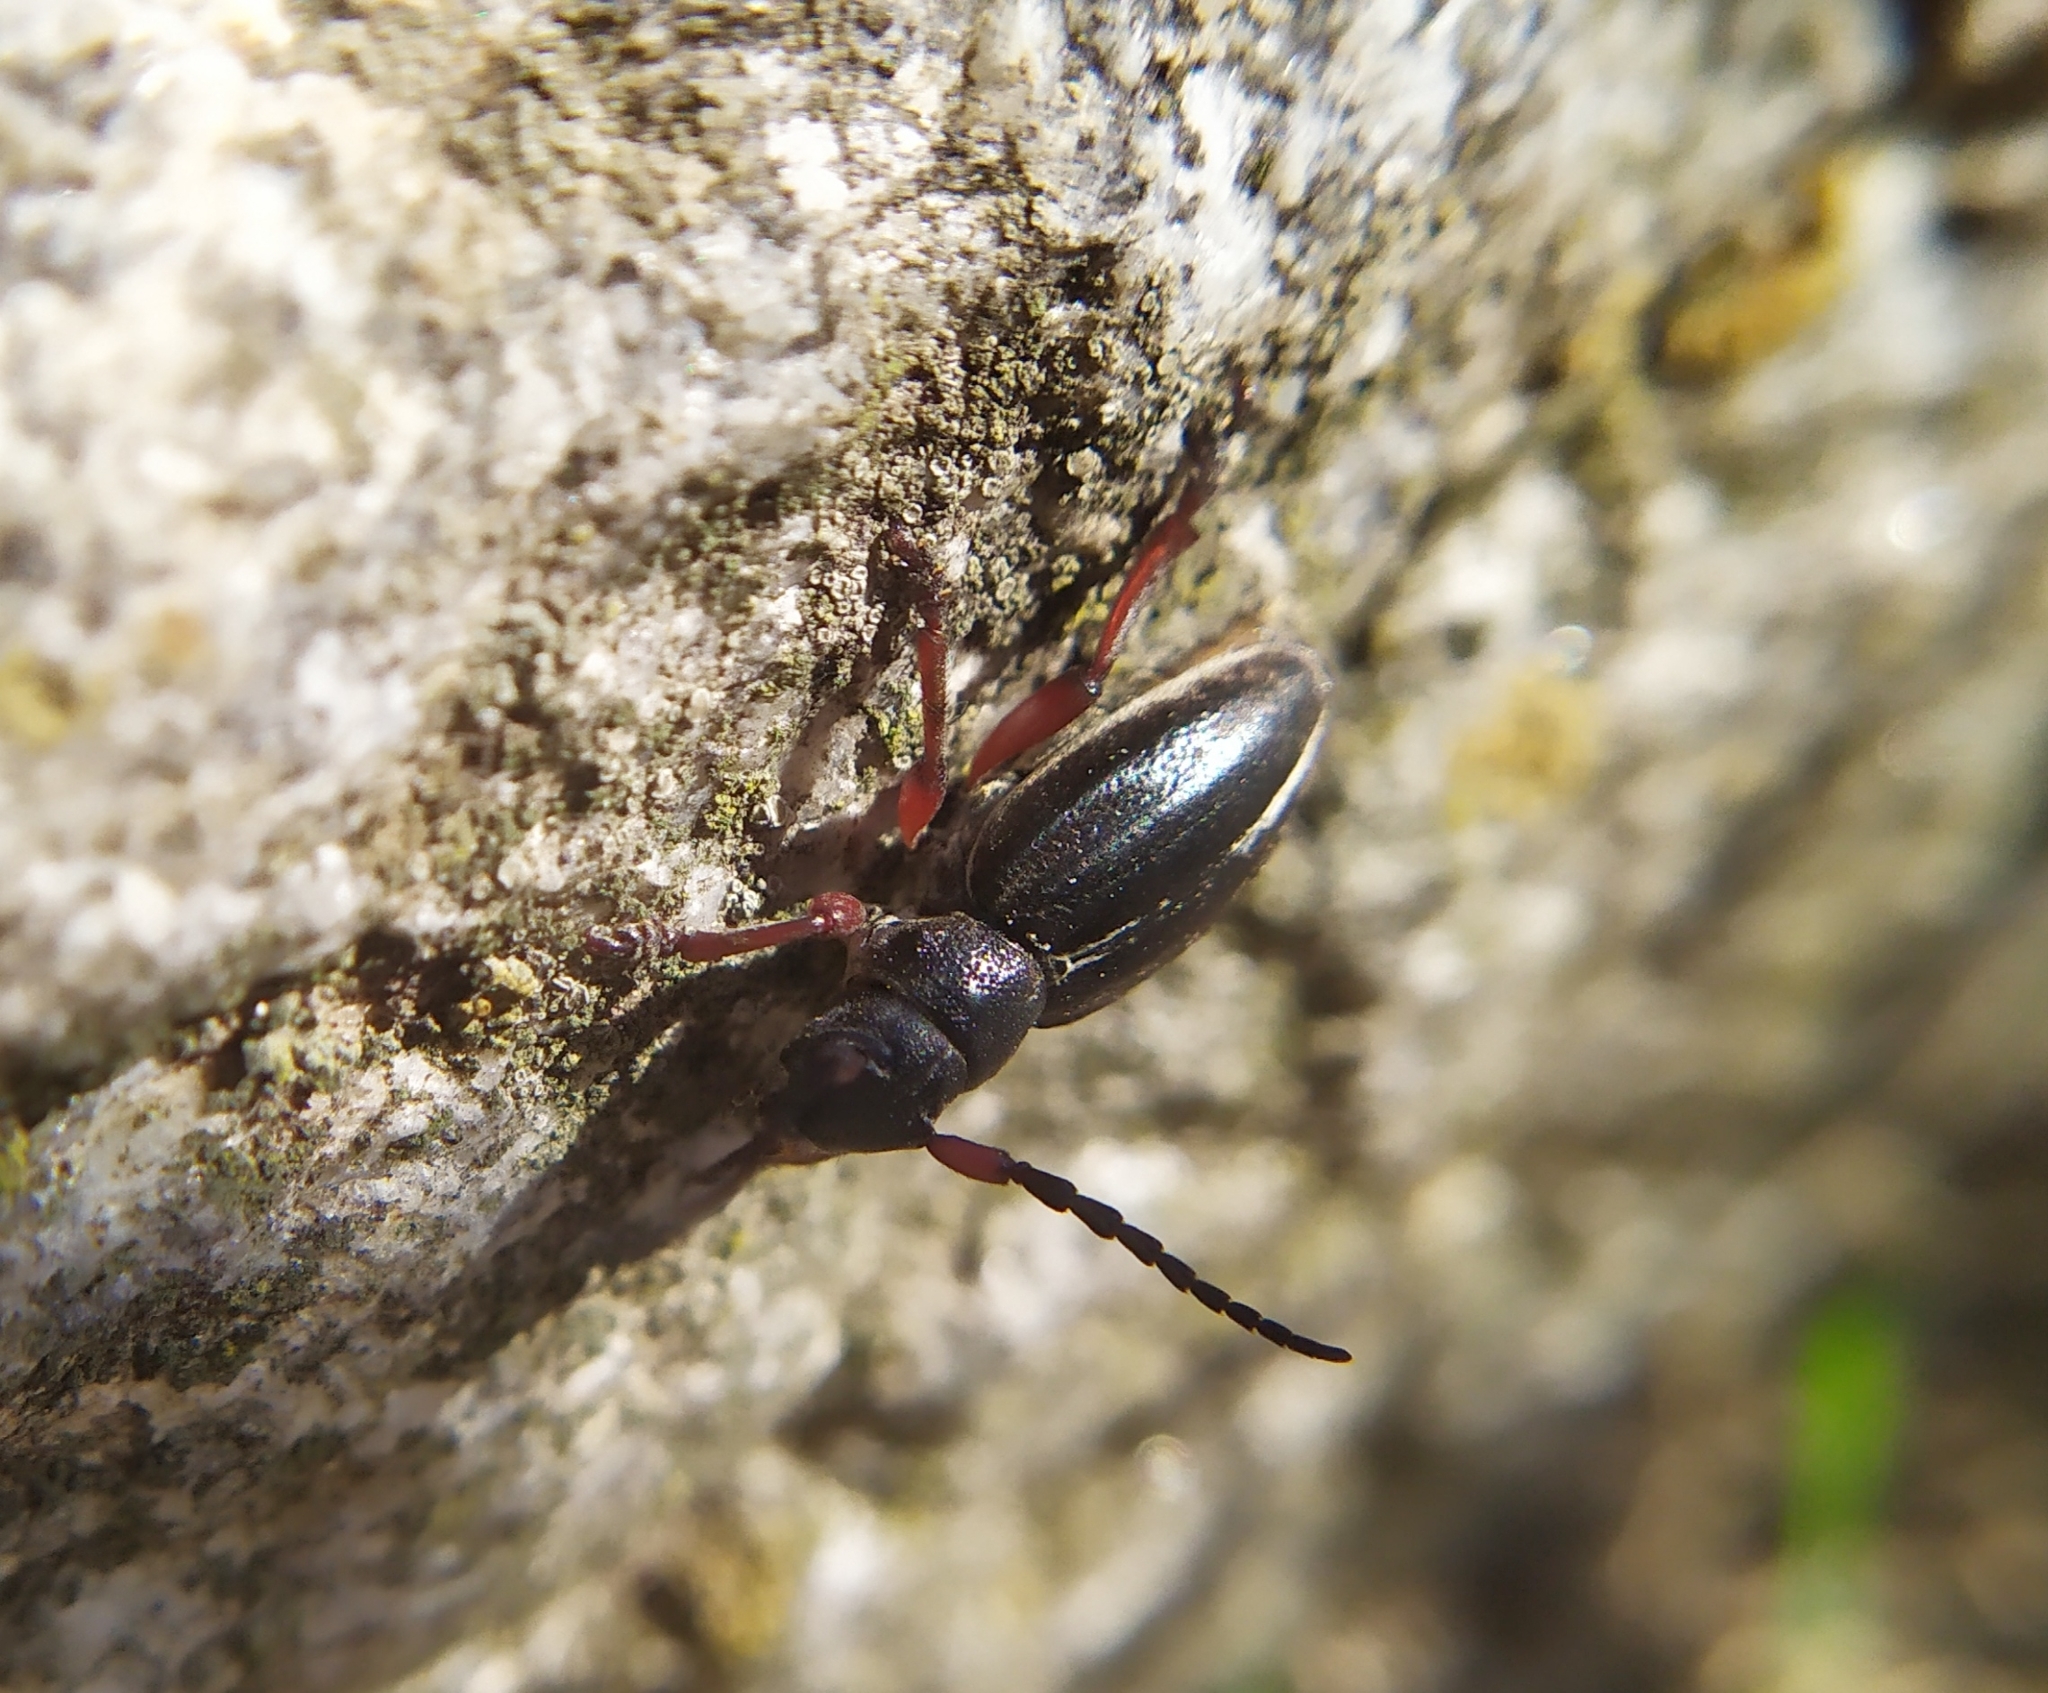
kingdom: Animalia
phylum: Arthropoda
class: Insecta
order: Coleoptera
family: Cerambycidae
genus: Dorcadion
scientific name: Dorcadion pedestre
